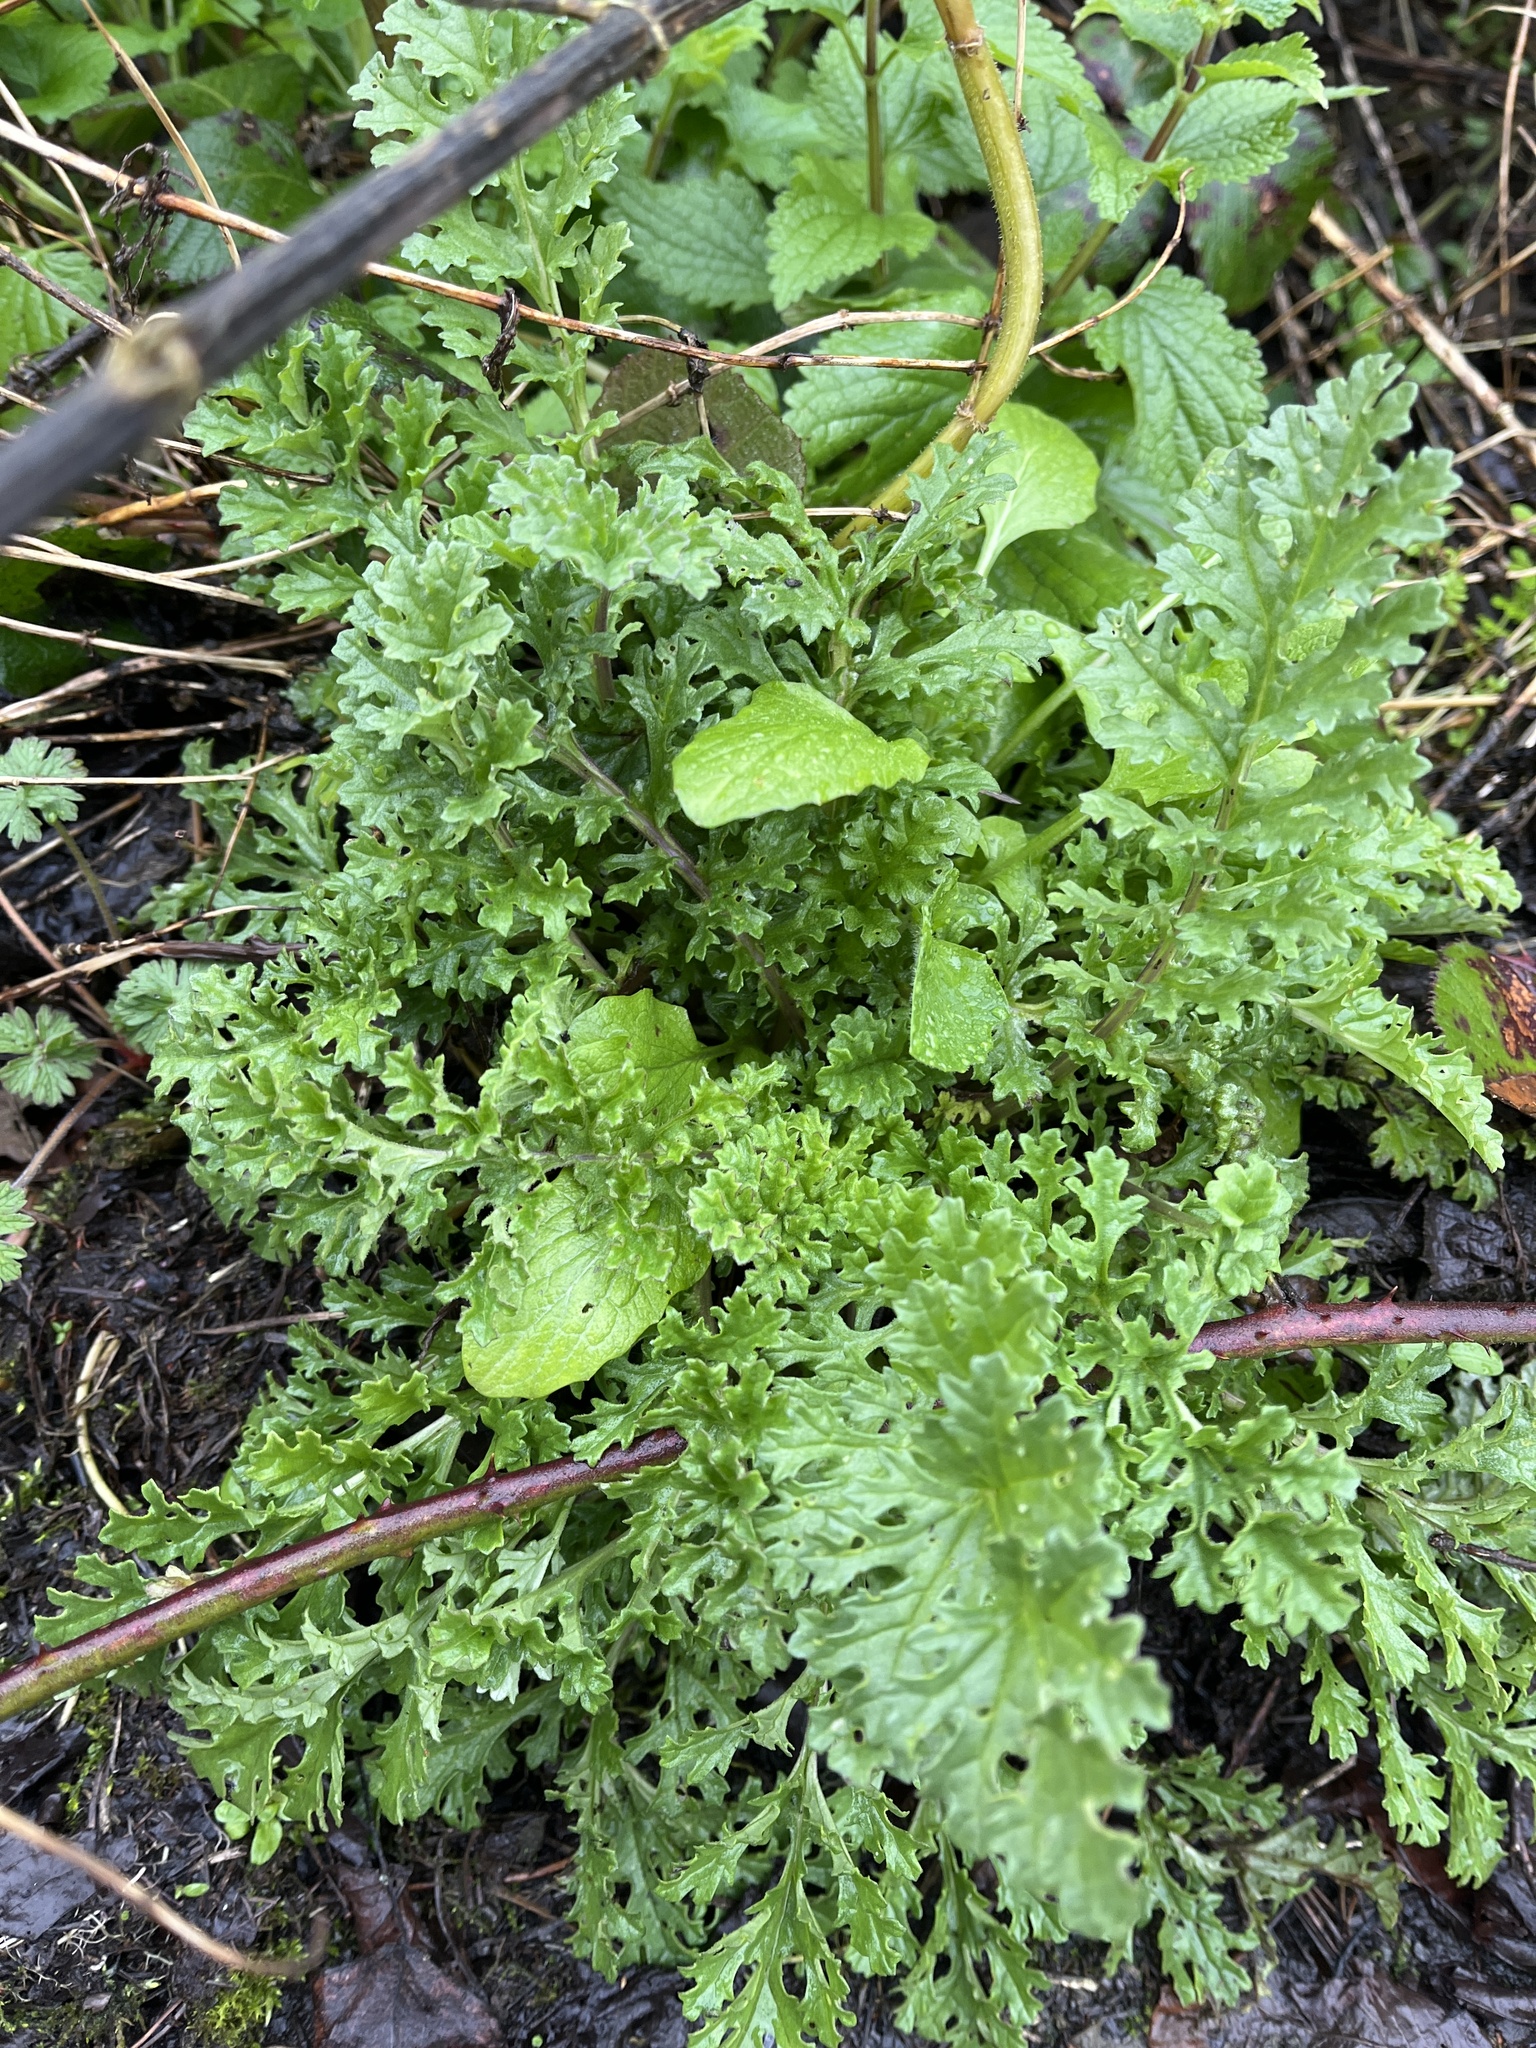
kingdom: Plantae
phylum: Tracheophyta
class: Magnoliopsida
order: Asterales
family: Asteraceae
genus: Jacobaea
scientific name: Jacobaea vulgaris
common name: Stinking willie
